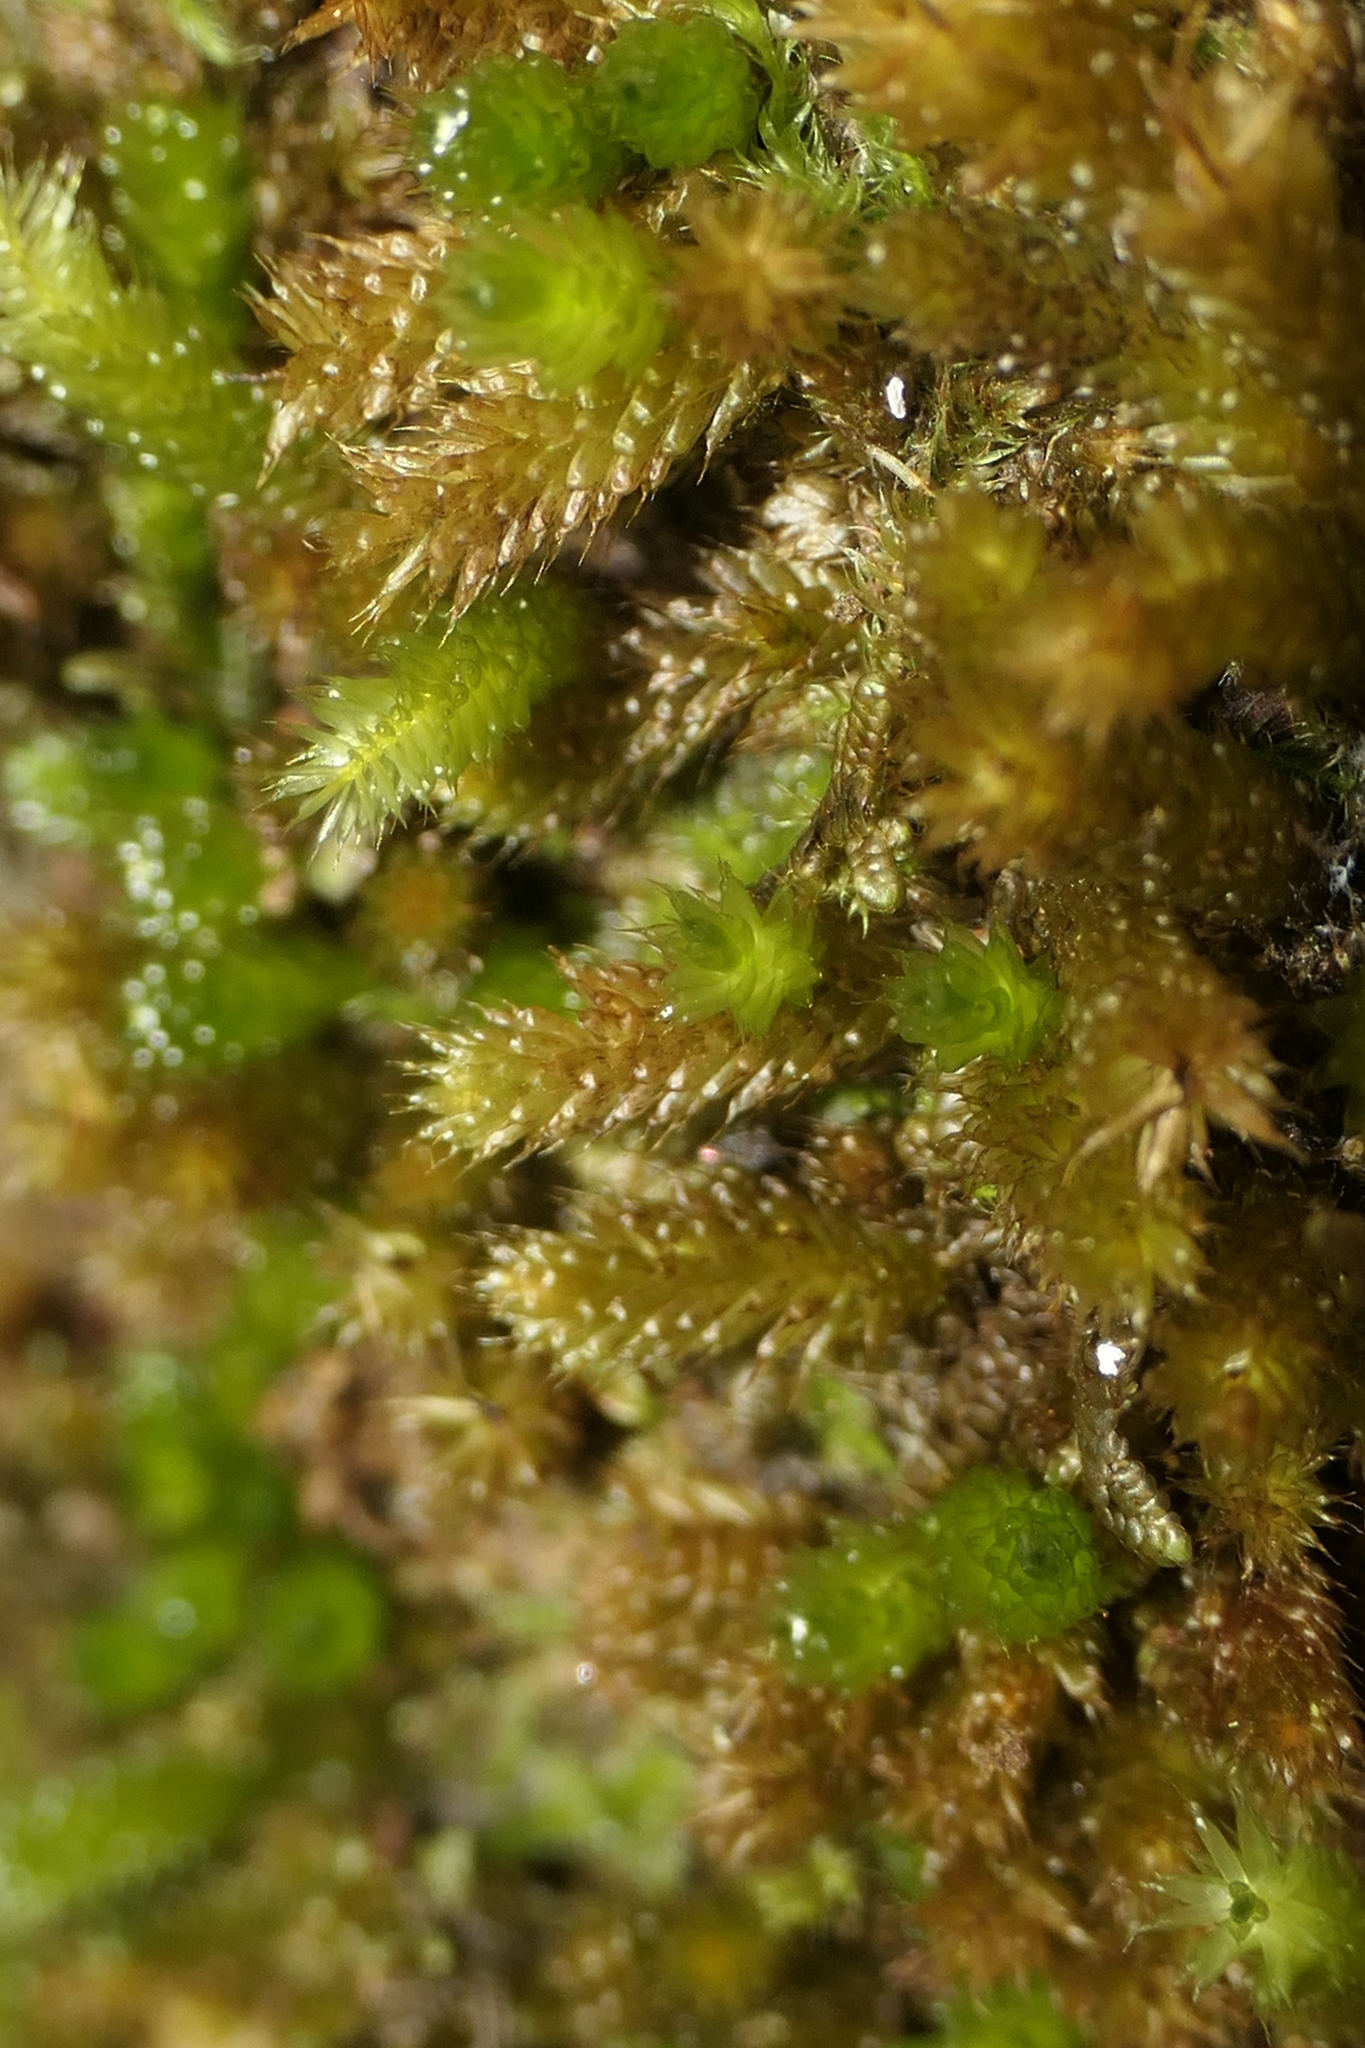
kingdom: Plantae
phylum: Bryophyta
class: Bryopsida
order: Hypnales
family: Myuriaceae
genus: Myurium
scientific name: Myurium hochstetteri
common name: Hare-tail moss
